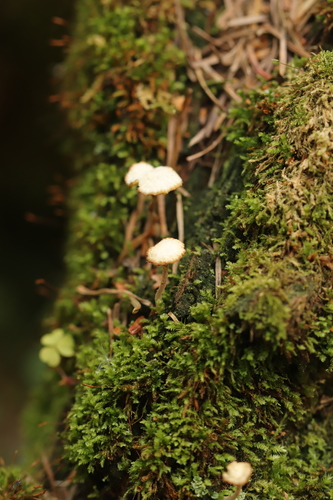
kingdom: Fungi
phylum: Basidiomycota
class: Agaricomycetes
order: Agaricales
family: Hygrophoraceae
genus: Lichenomphalia
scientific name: Lichenomphalia umbellifera
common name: Heath navel
